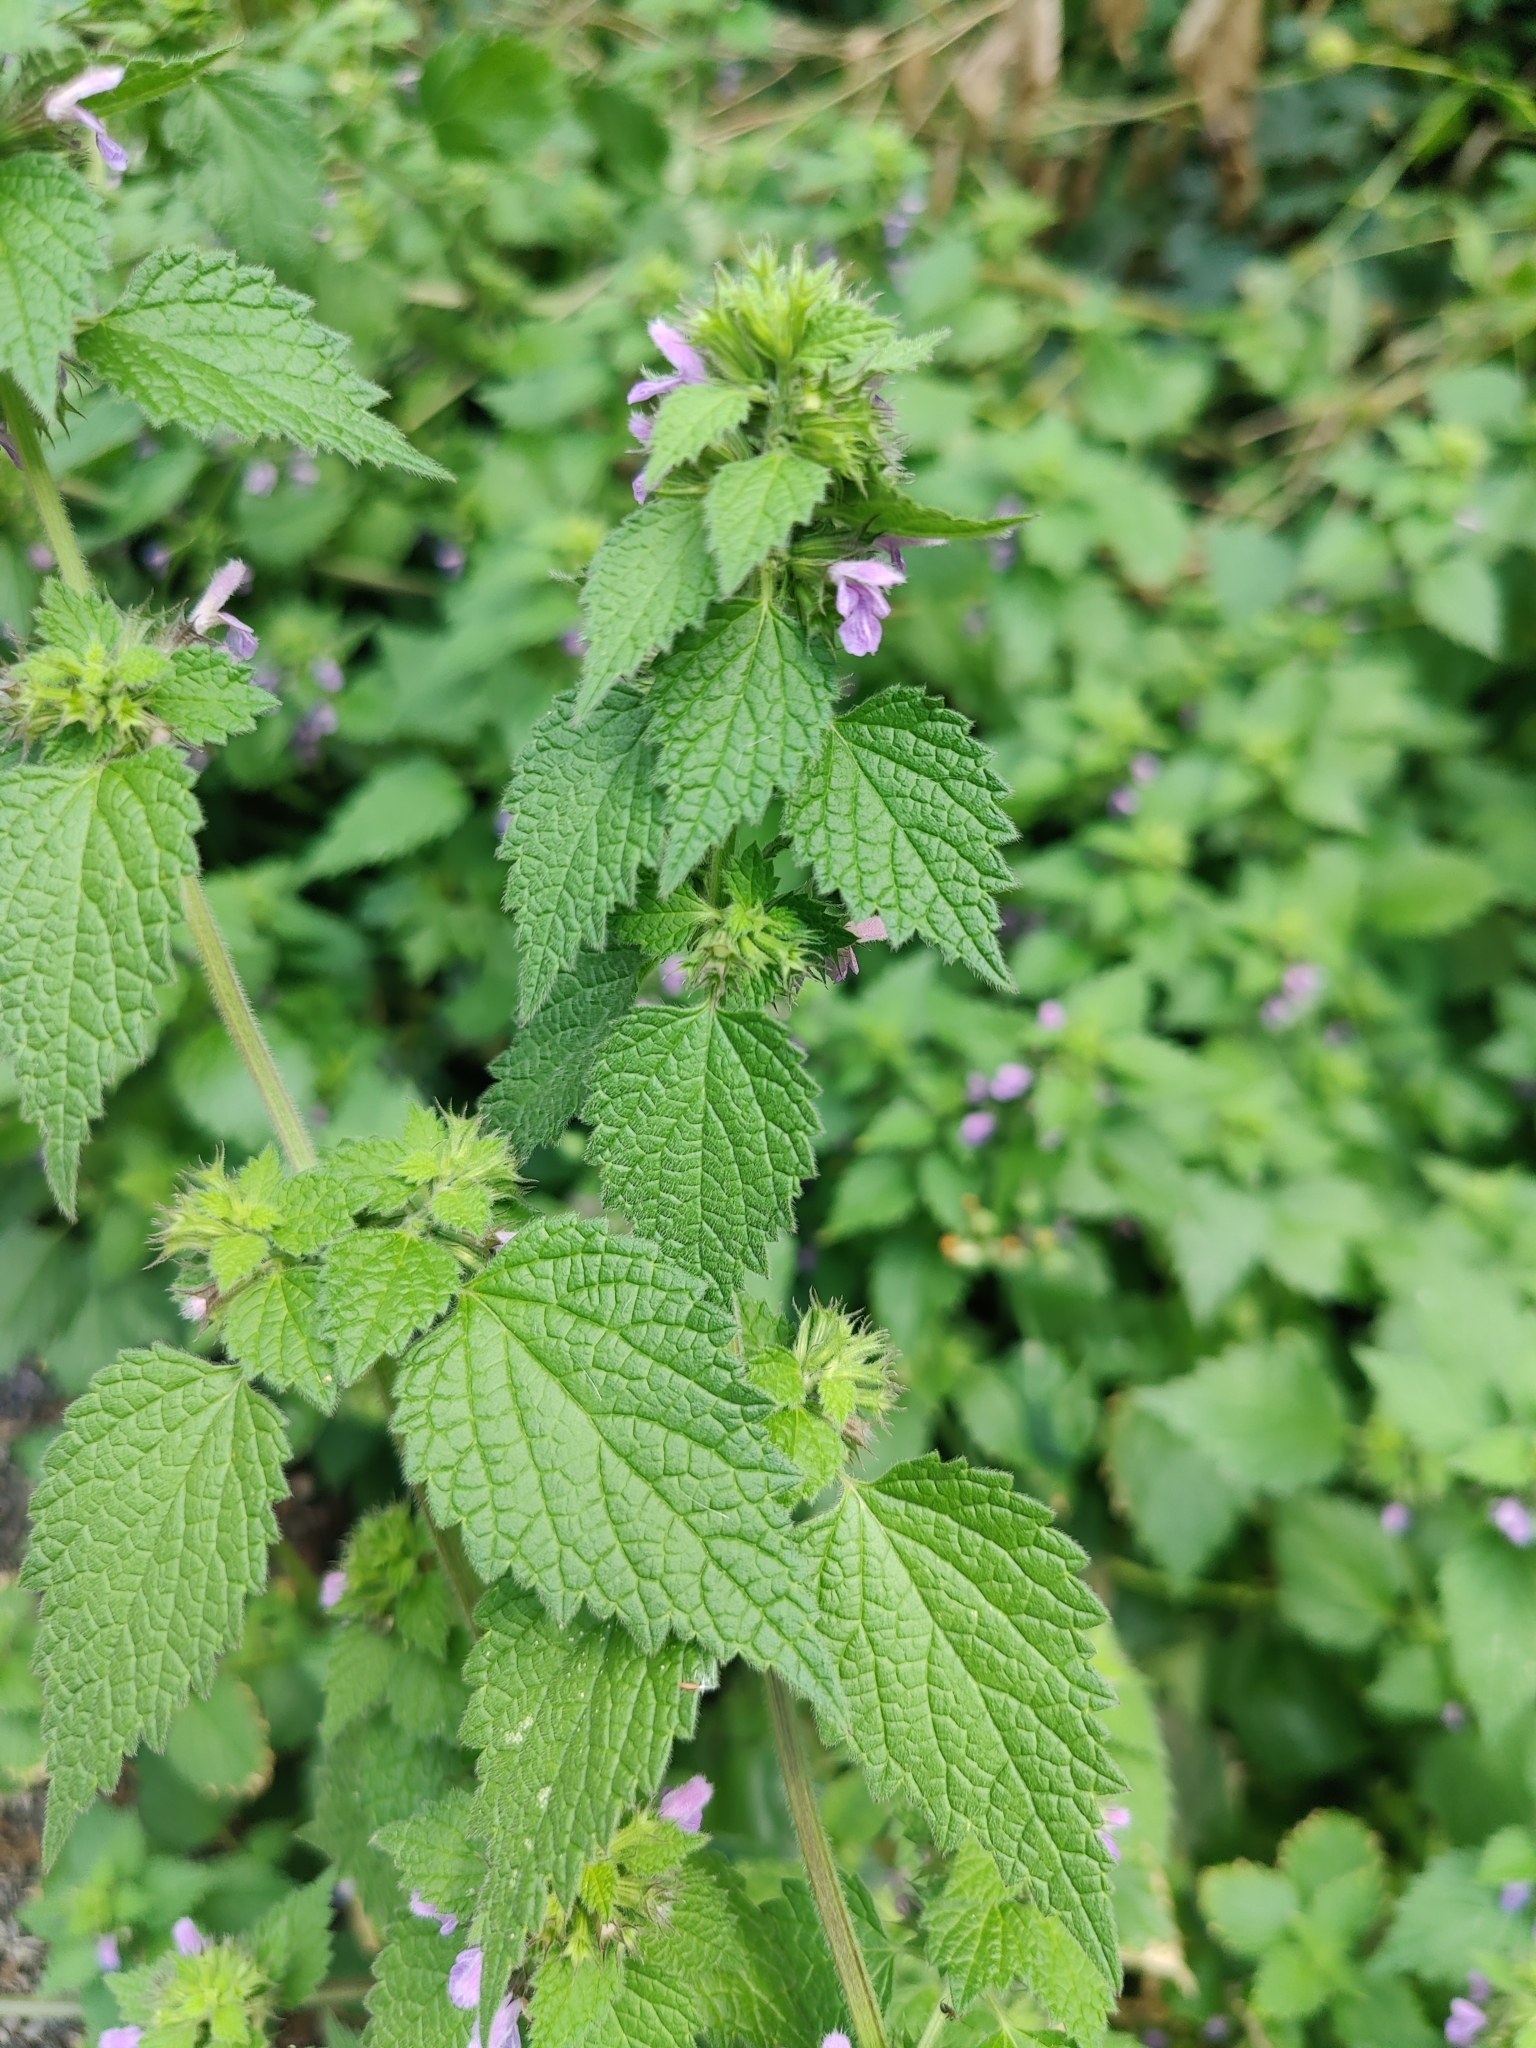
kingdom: Plantae
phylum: Tracheophyta
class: Magnoliopsida
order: Lamiales
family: Lamiaceae
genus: Ballota
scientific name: Ballota nigra
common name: Black horehound
